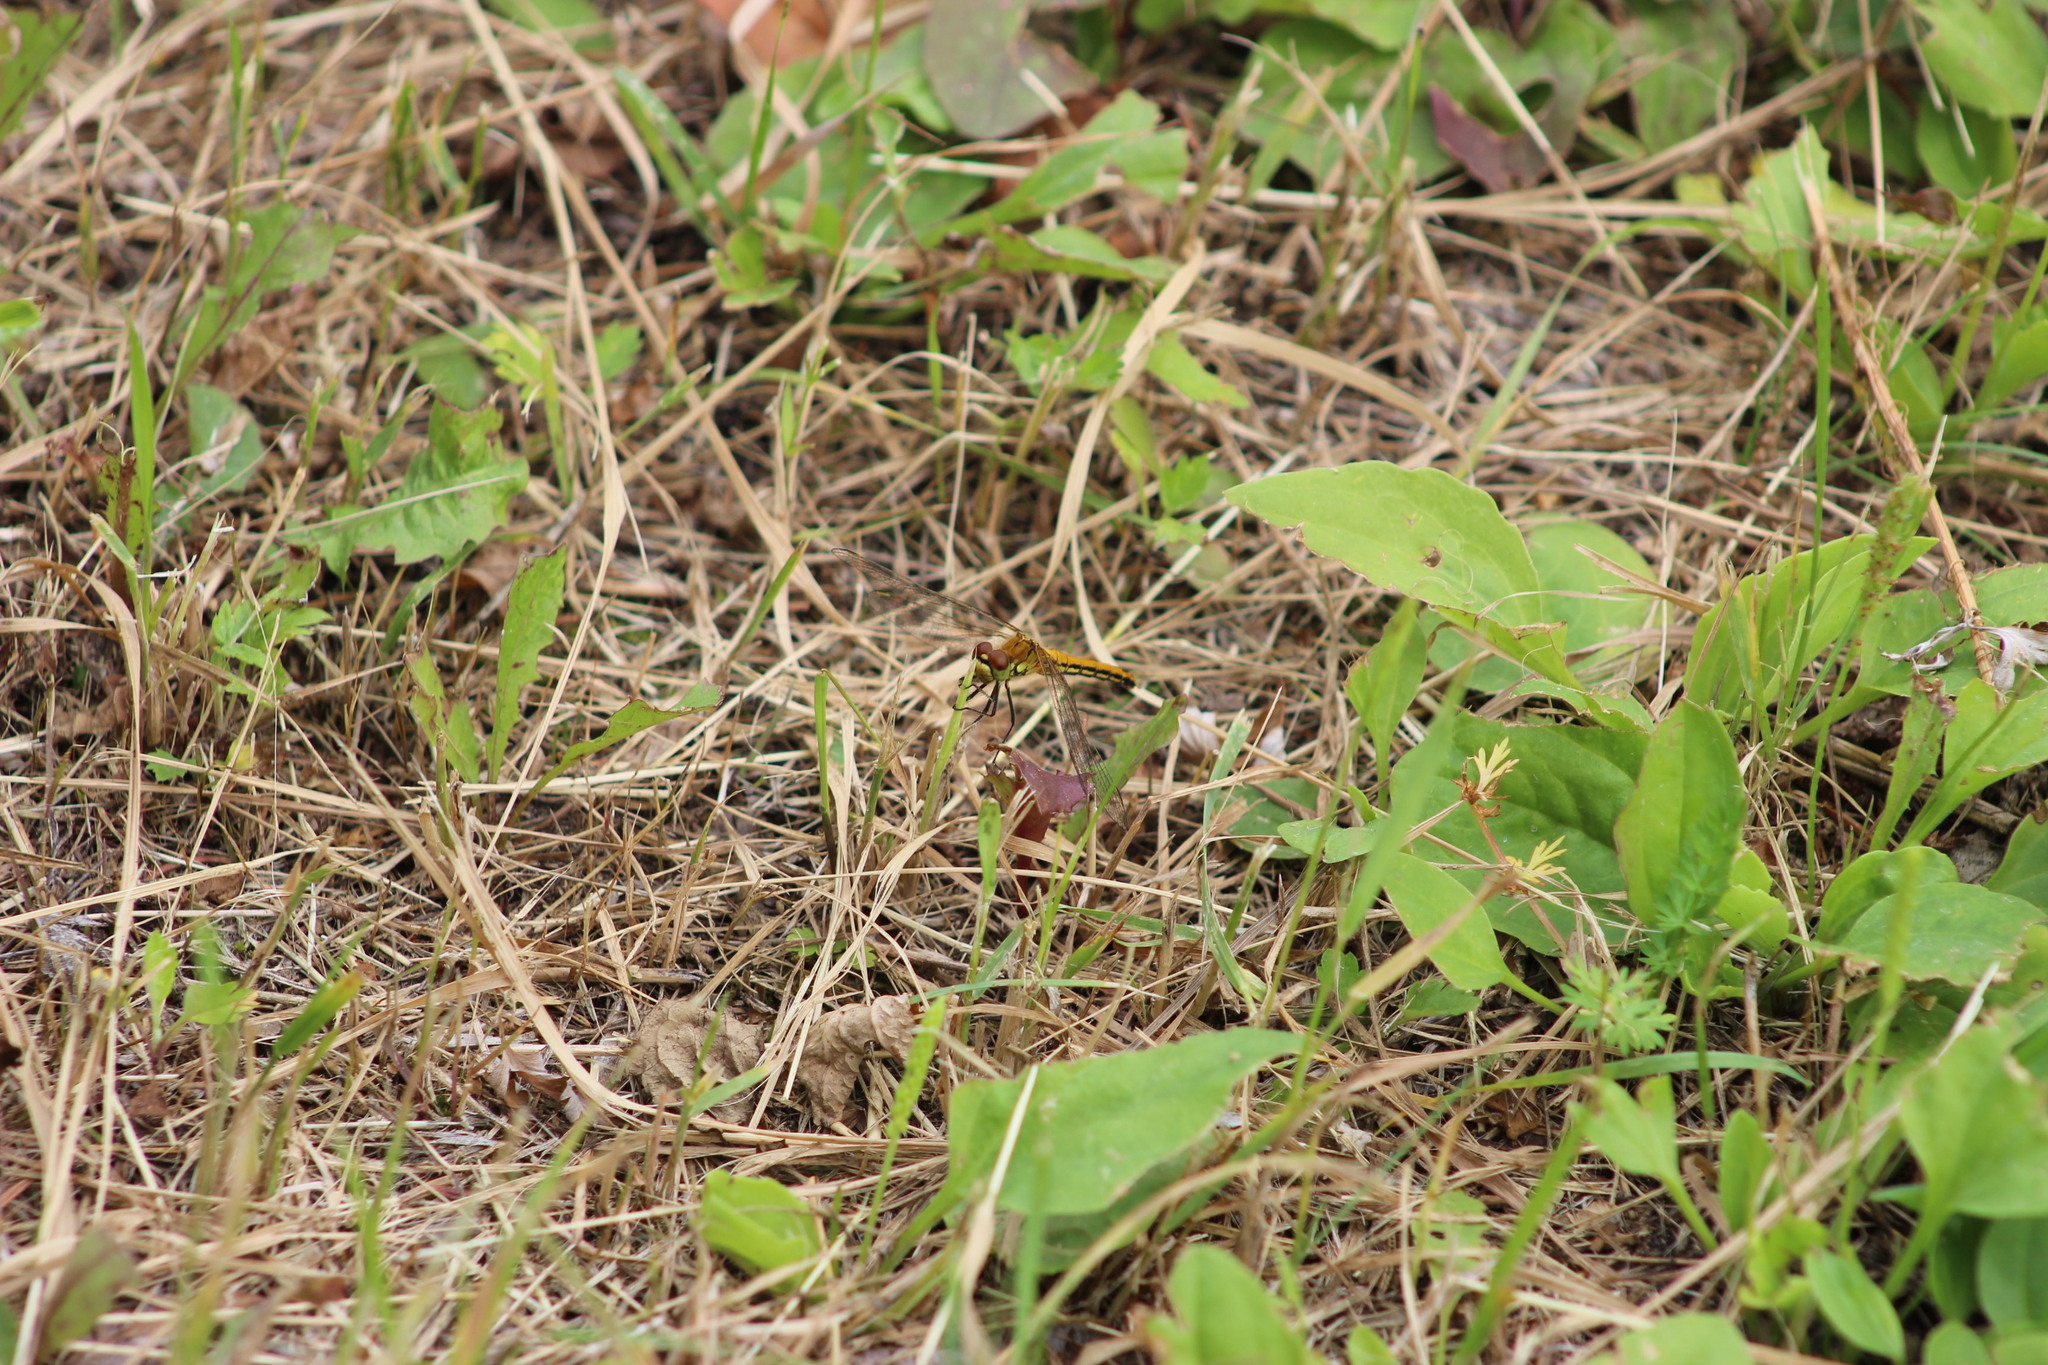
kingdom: Animalia
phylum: Arthropoda
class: Insecta
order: Odonata
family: Libellulidae
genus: Sympetrum
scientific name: Sympetrum flaveolum
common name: Yellow-winged darter
